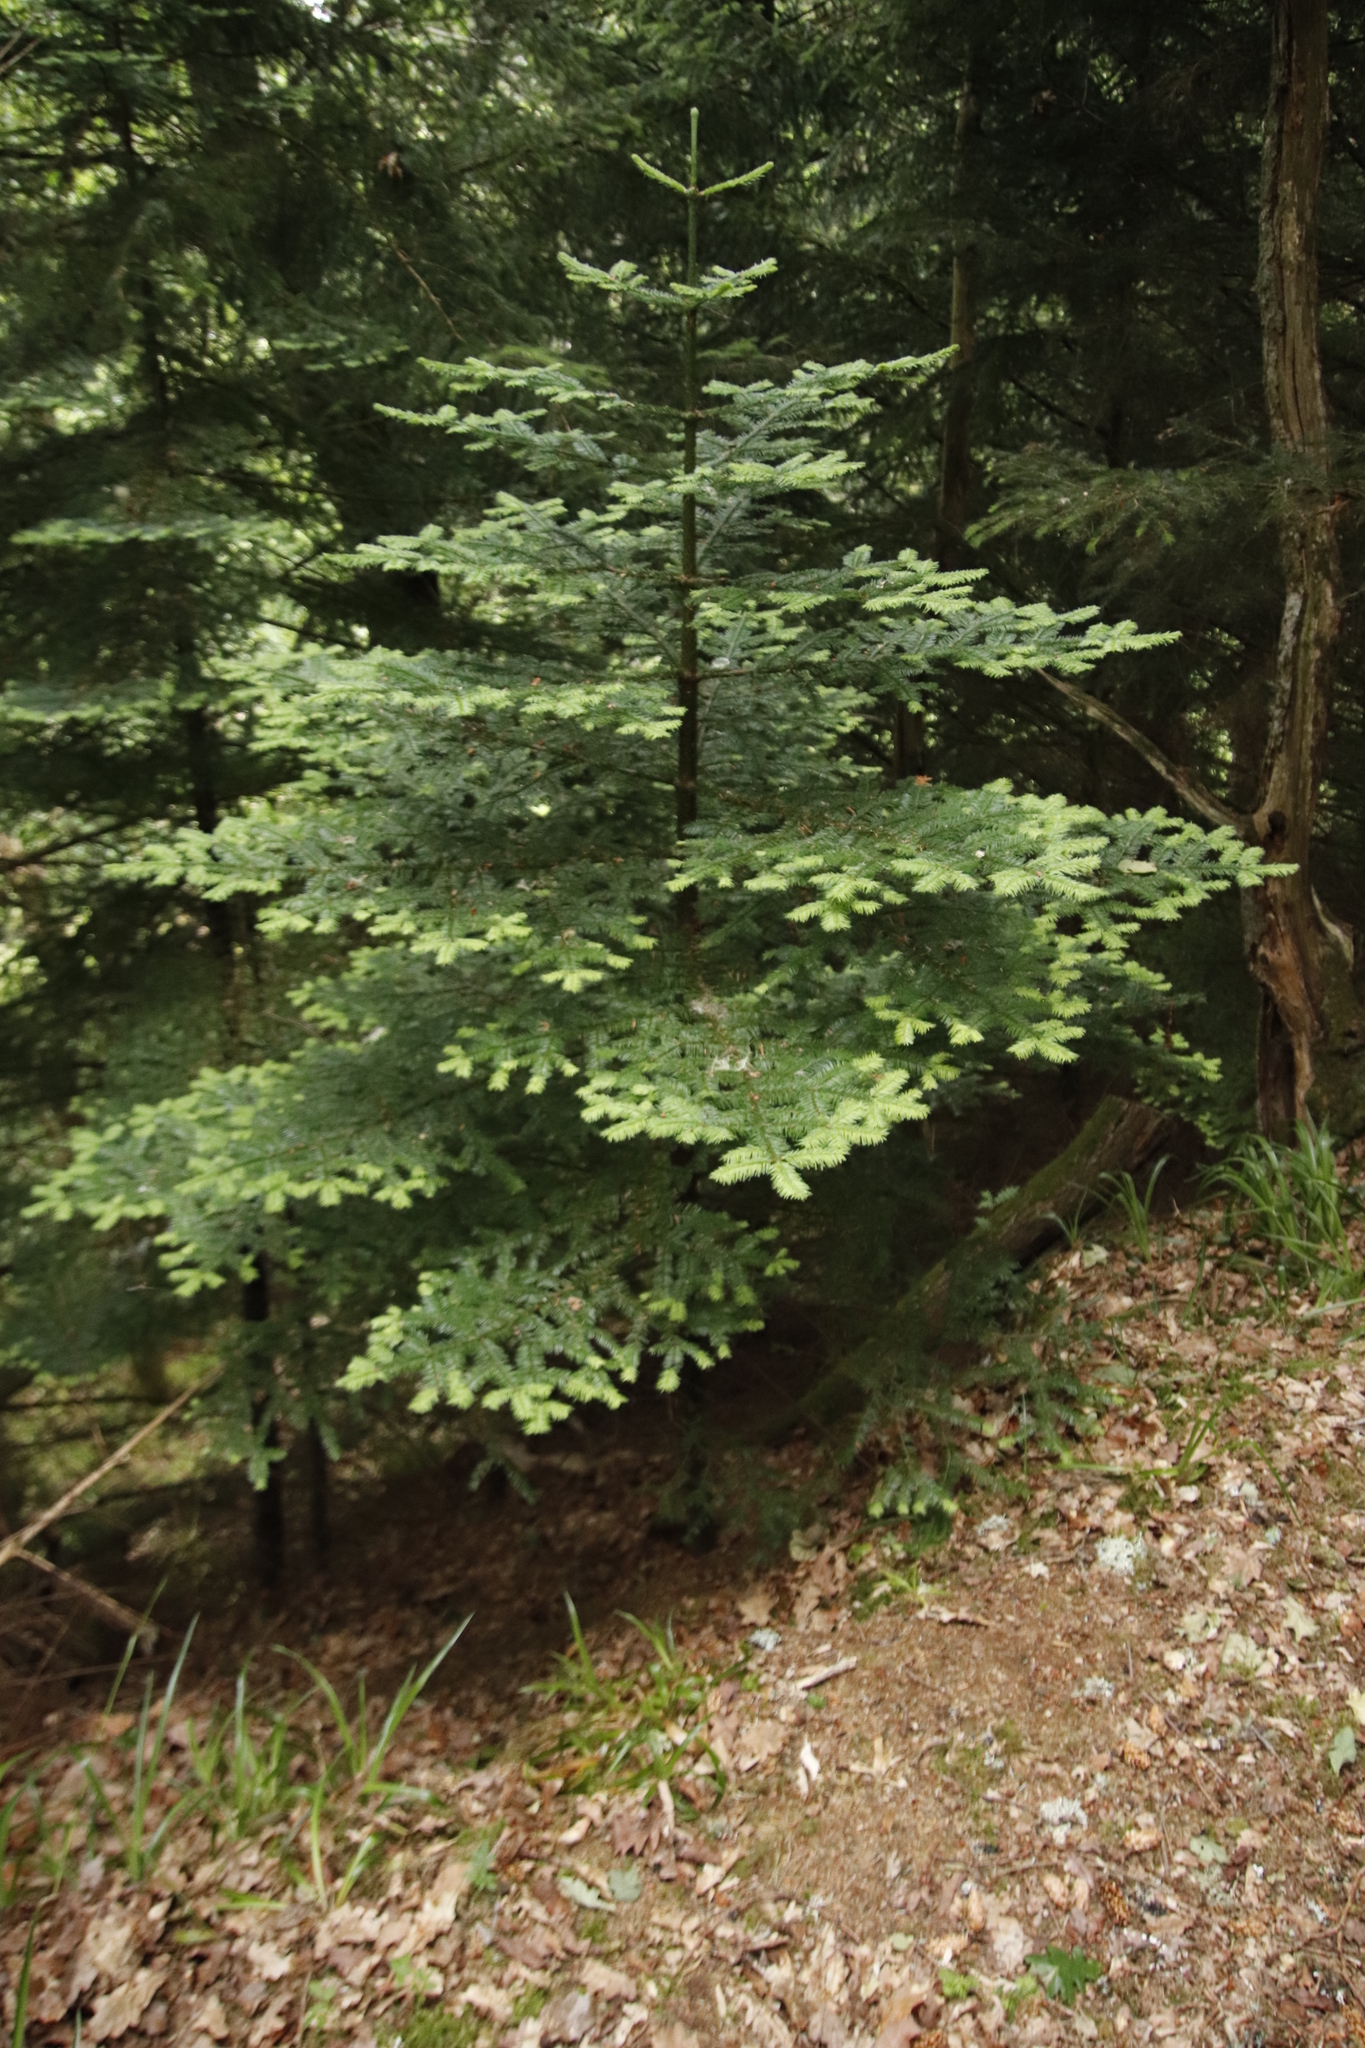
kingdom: Plantae
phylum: Tracheophyta
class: Pinopsida
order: Pinales
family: Pinaceae
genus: Abies
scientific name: Abies grandis
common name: Giant fir
